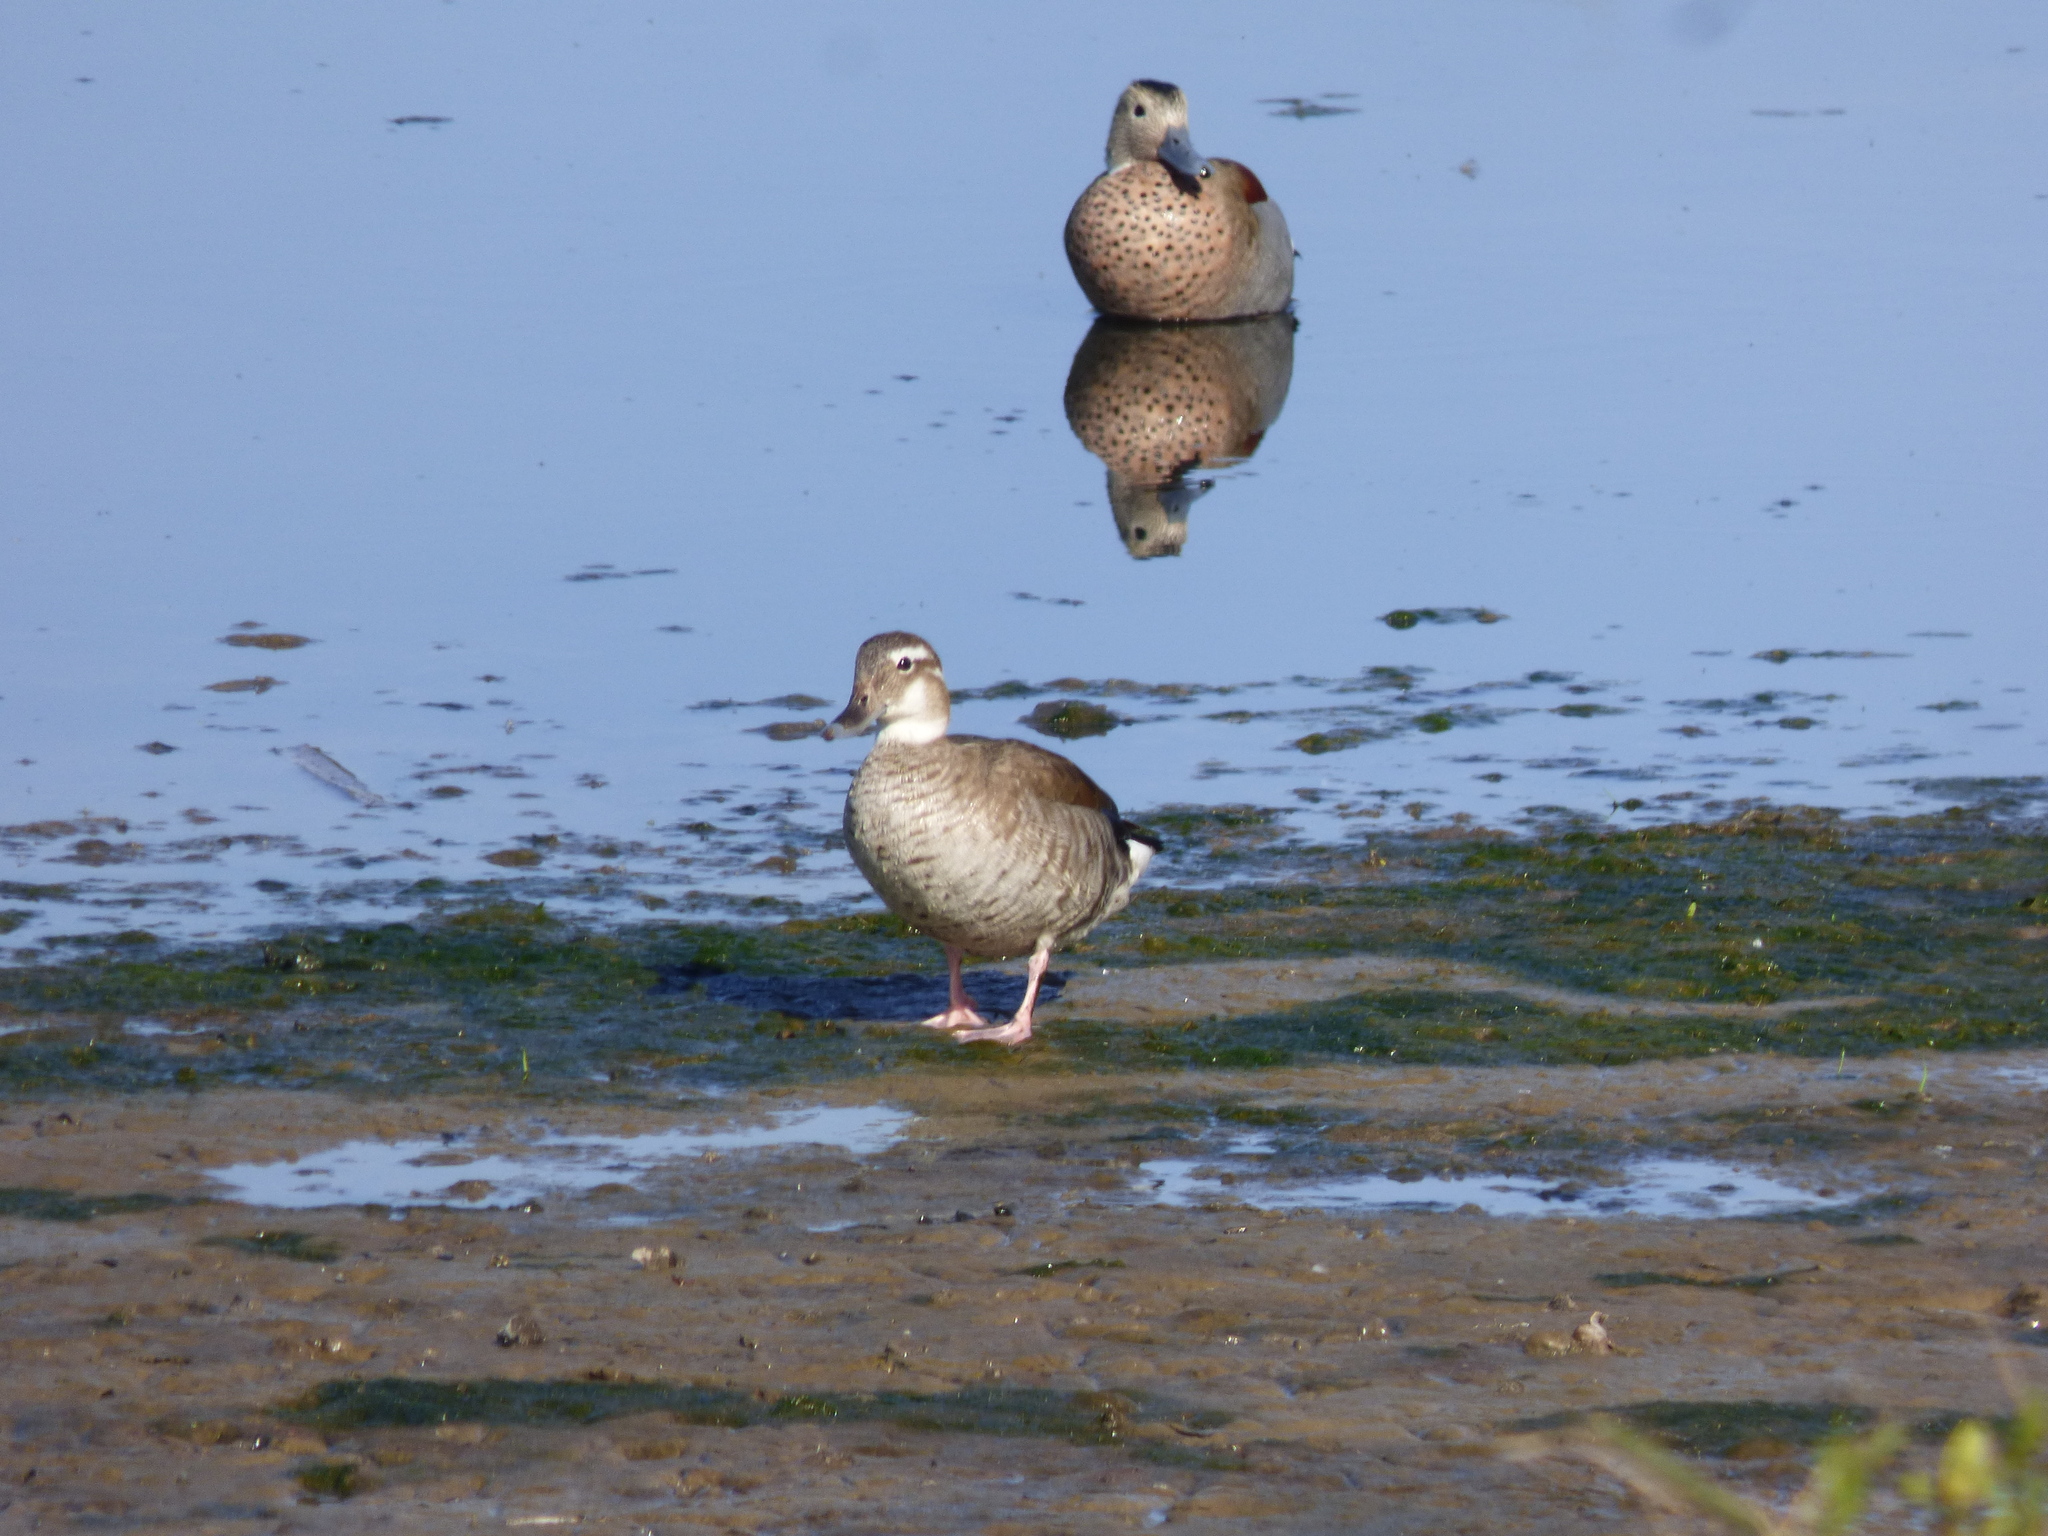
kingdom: Animalia
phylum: Chordata
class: Aves
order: Anseriformes
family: Anatidae
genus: Callonetta
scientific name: Callonetta leucophrys
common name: Ringed teal
